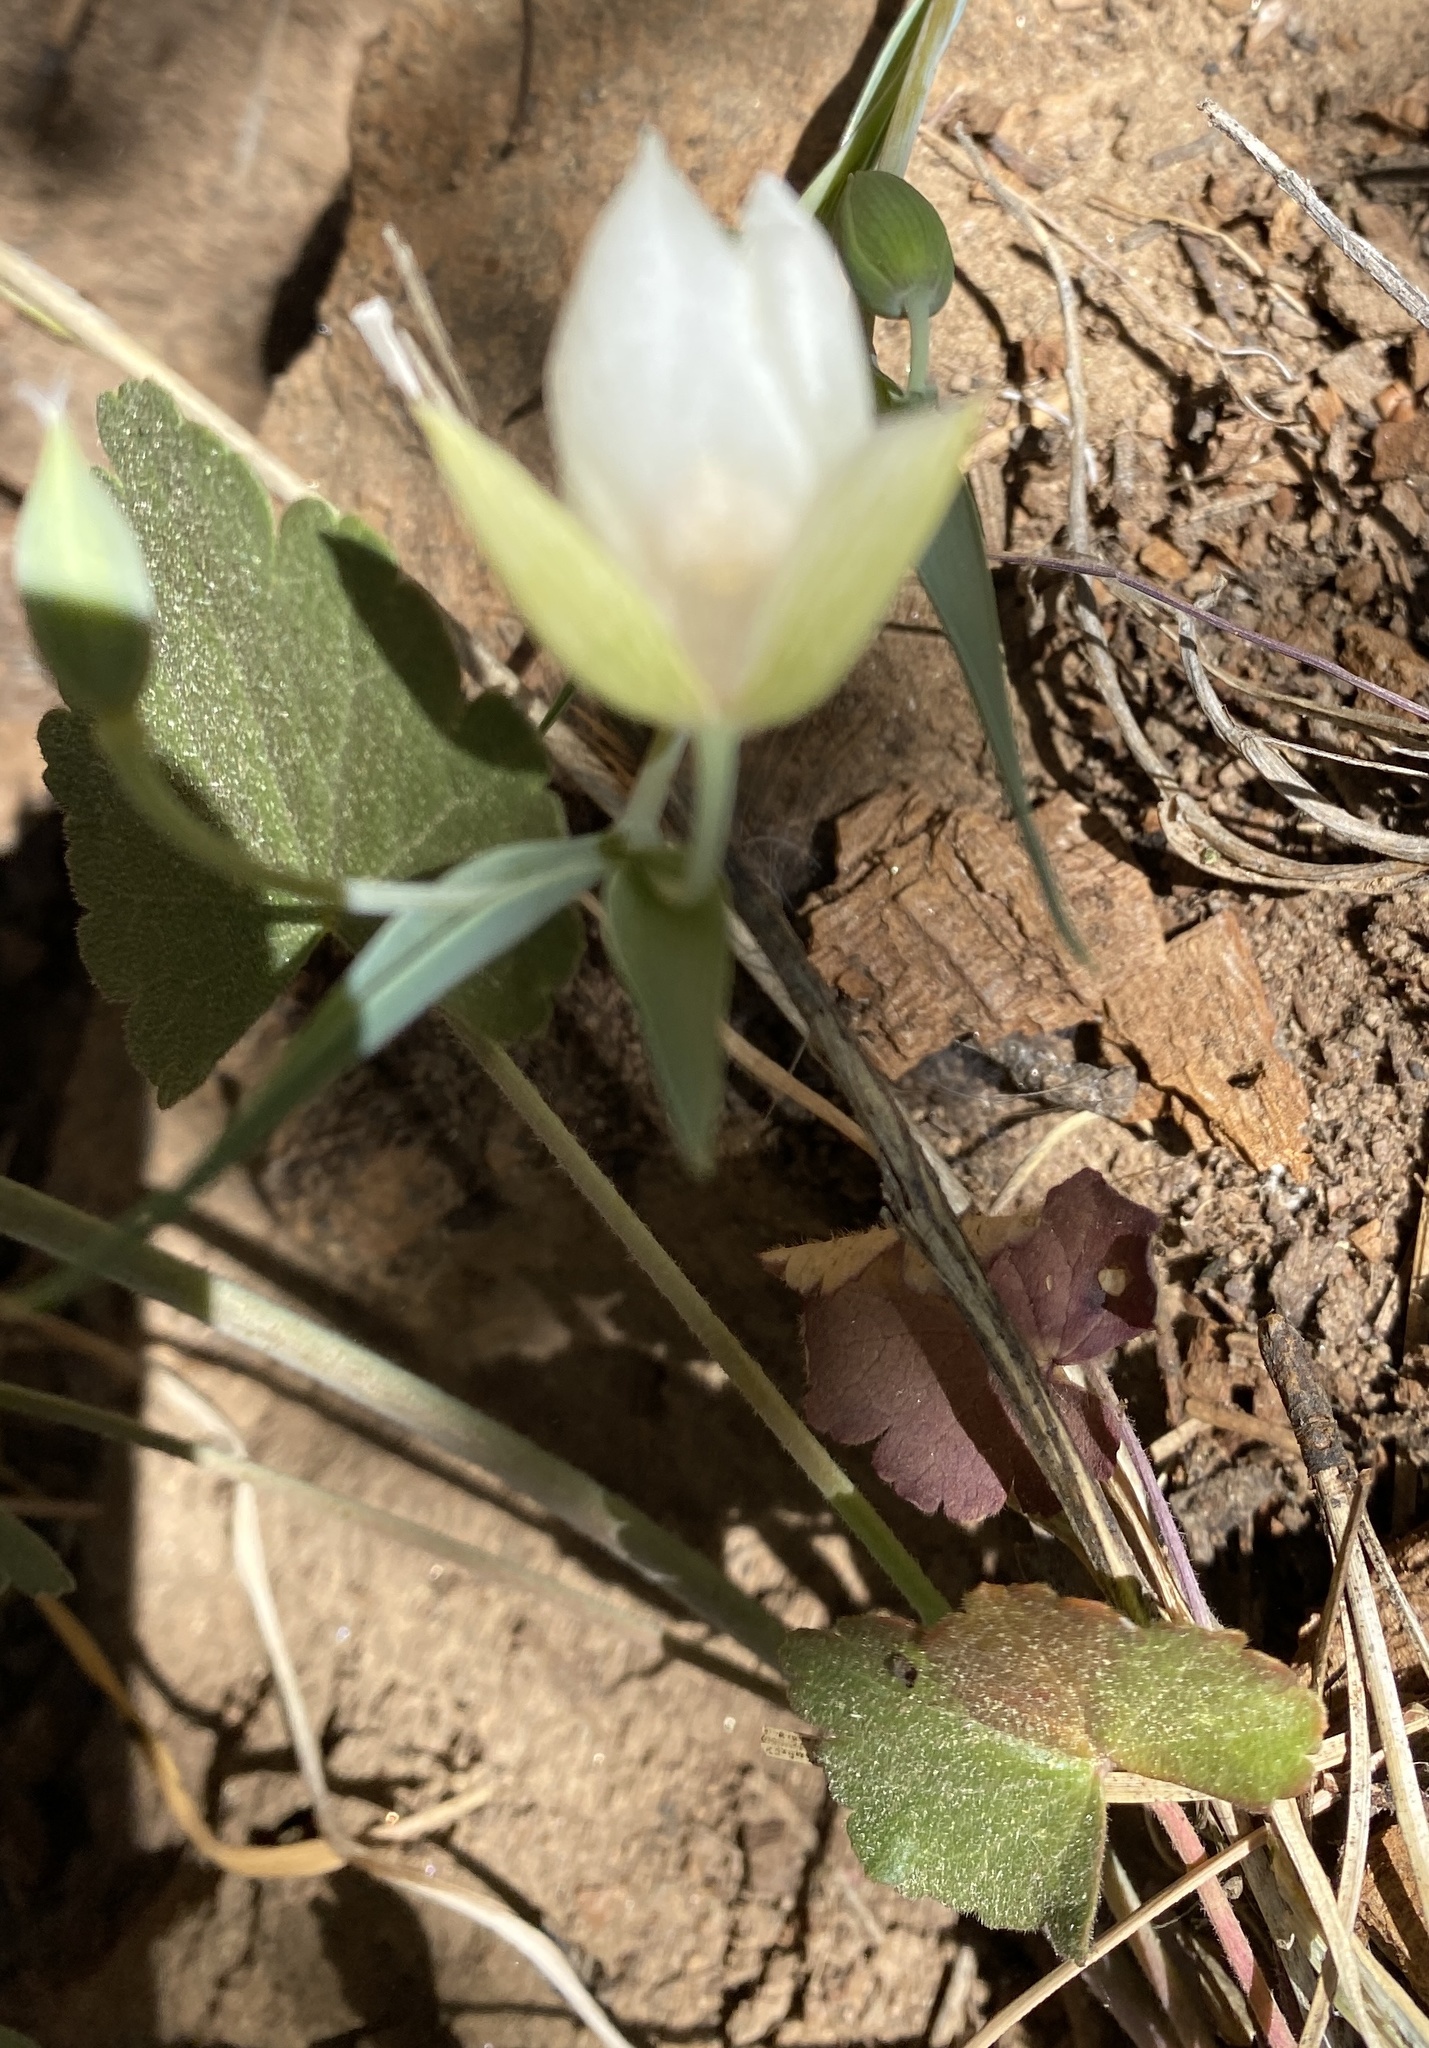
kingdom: Plantae
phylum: Tracheophyta
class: Liliopsida
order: Liliales
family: Liliaceae
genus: Calochortus
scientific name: Calochortus albus
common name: Fairy-lantern
